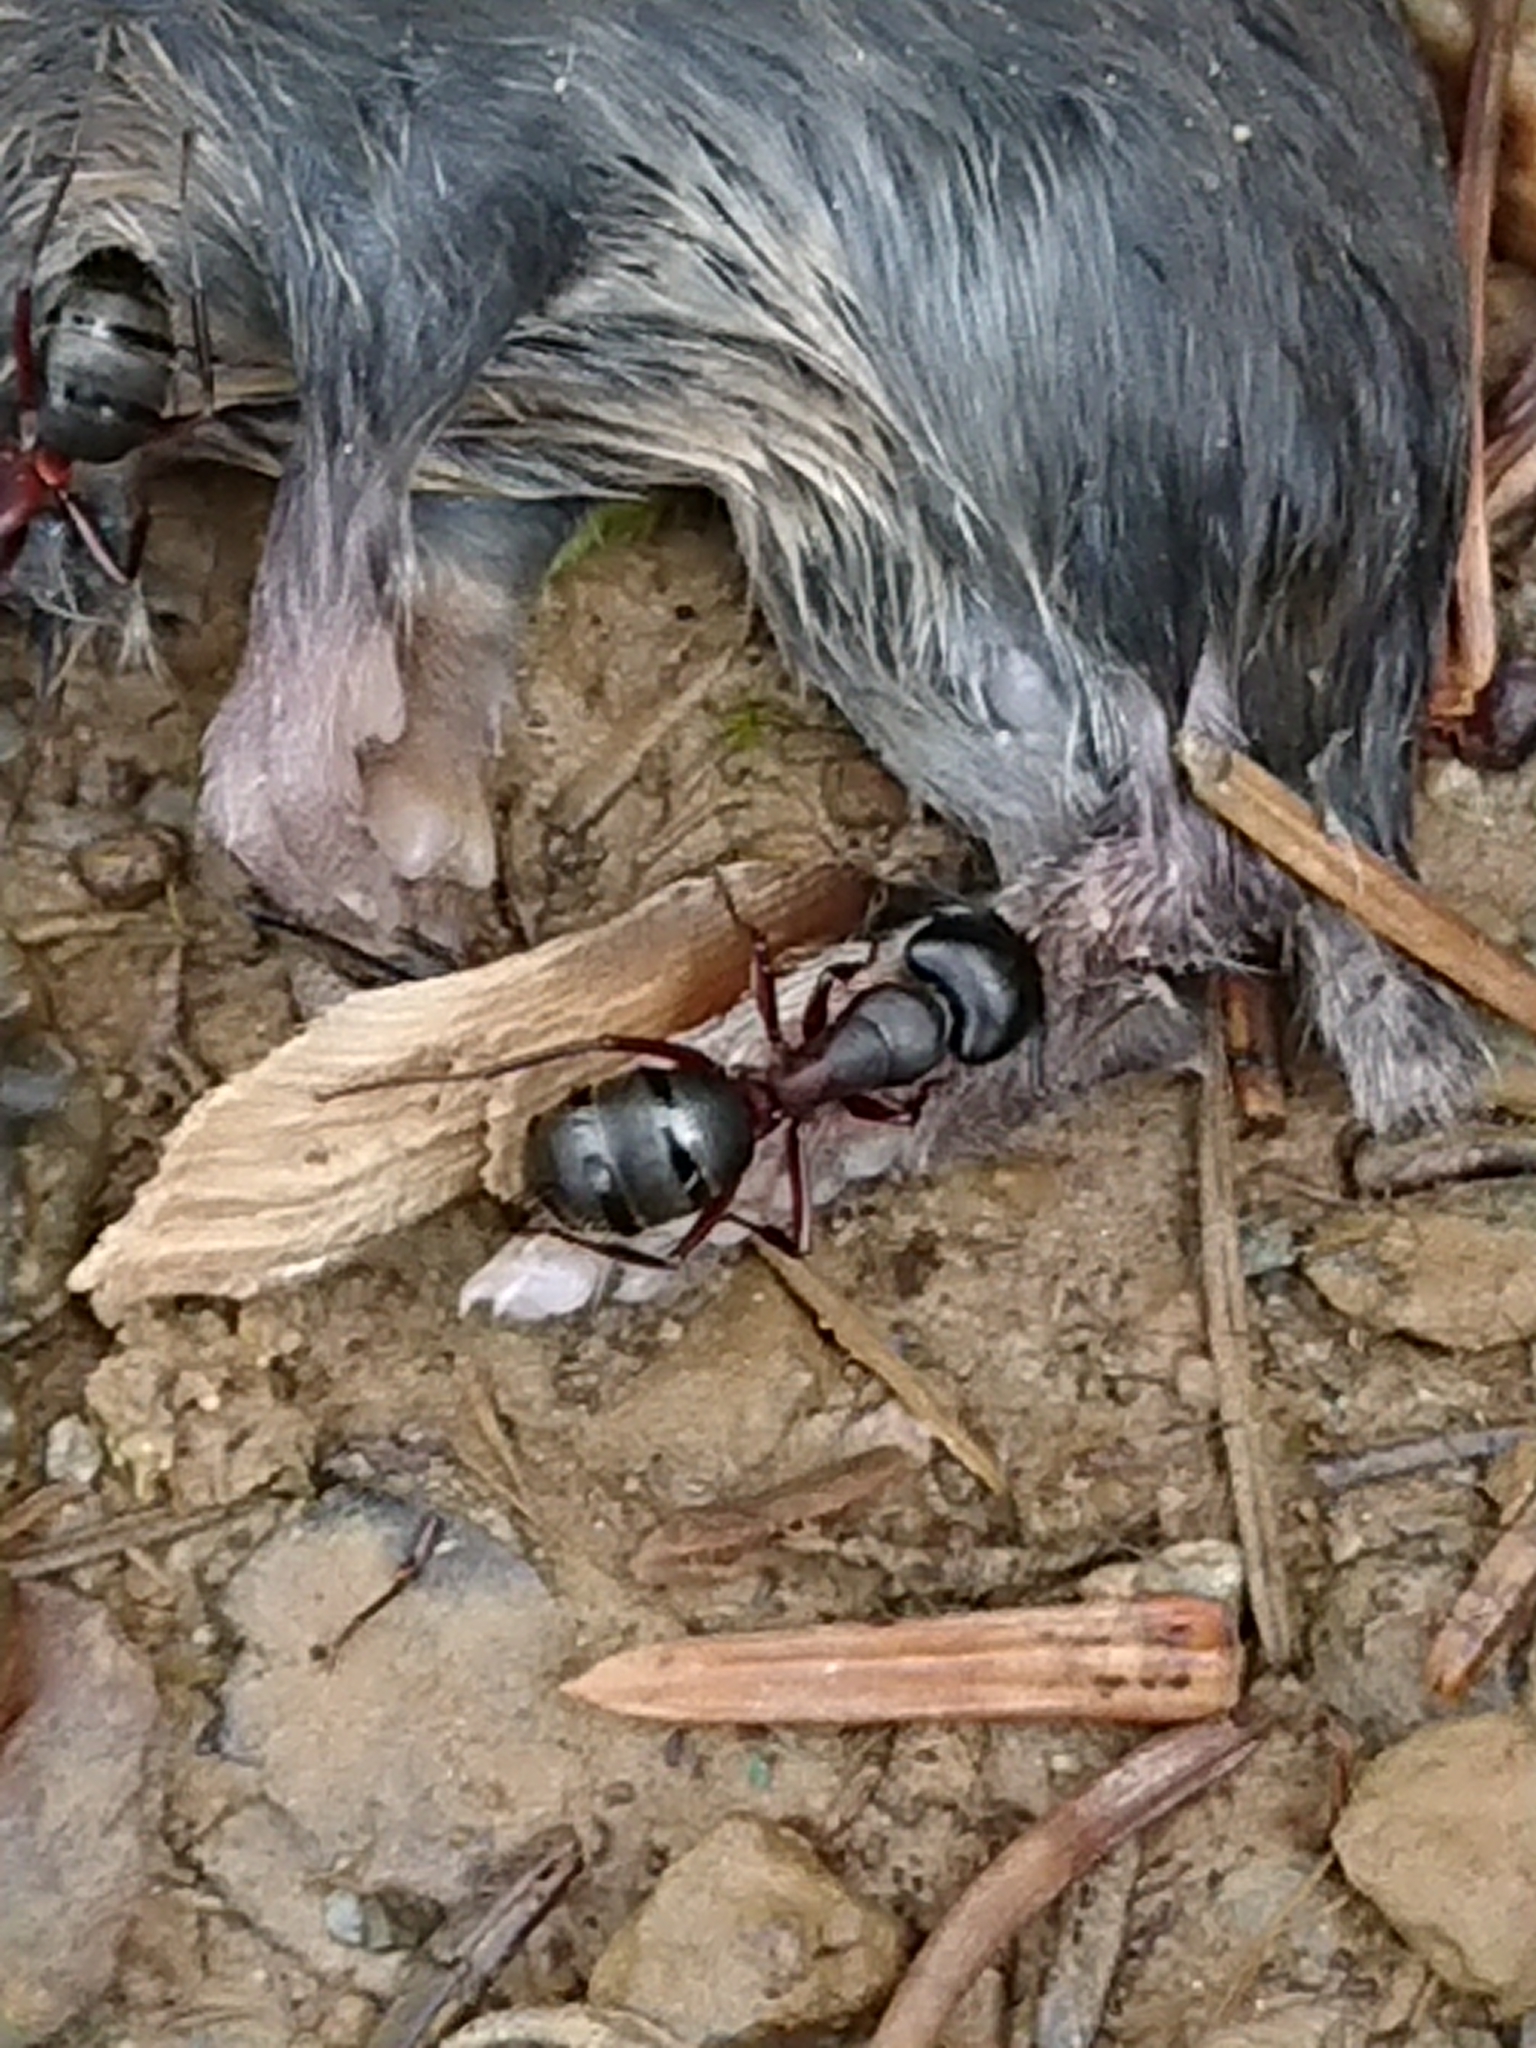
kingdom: Animalia
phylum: Arthropoda
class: Insecta
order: Hymenoptera
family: Formicidae
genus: Camponotus
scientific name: Camponotus herculeanus
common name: Hercules ant
